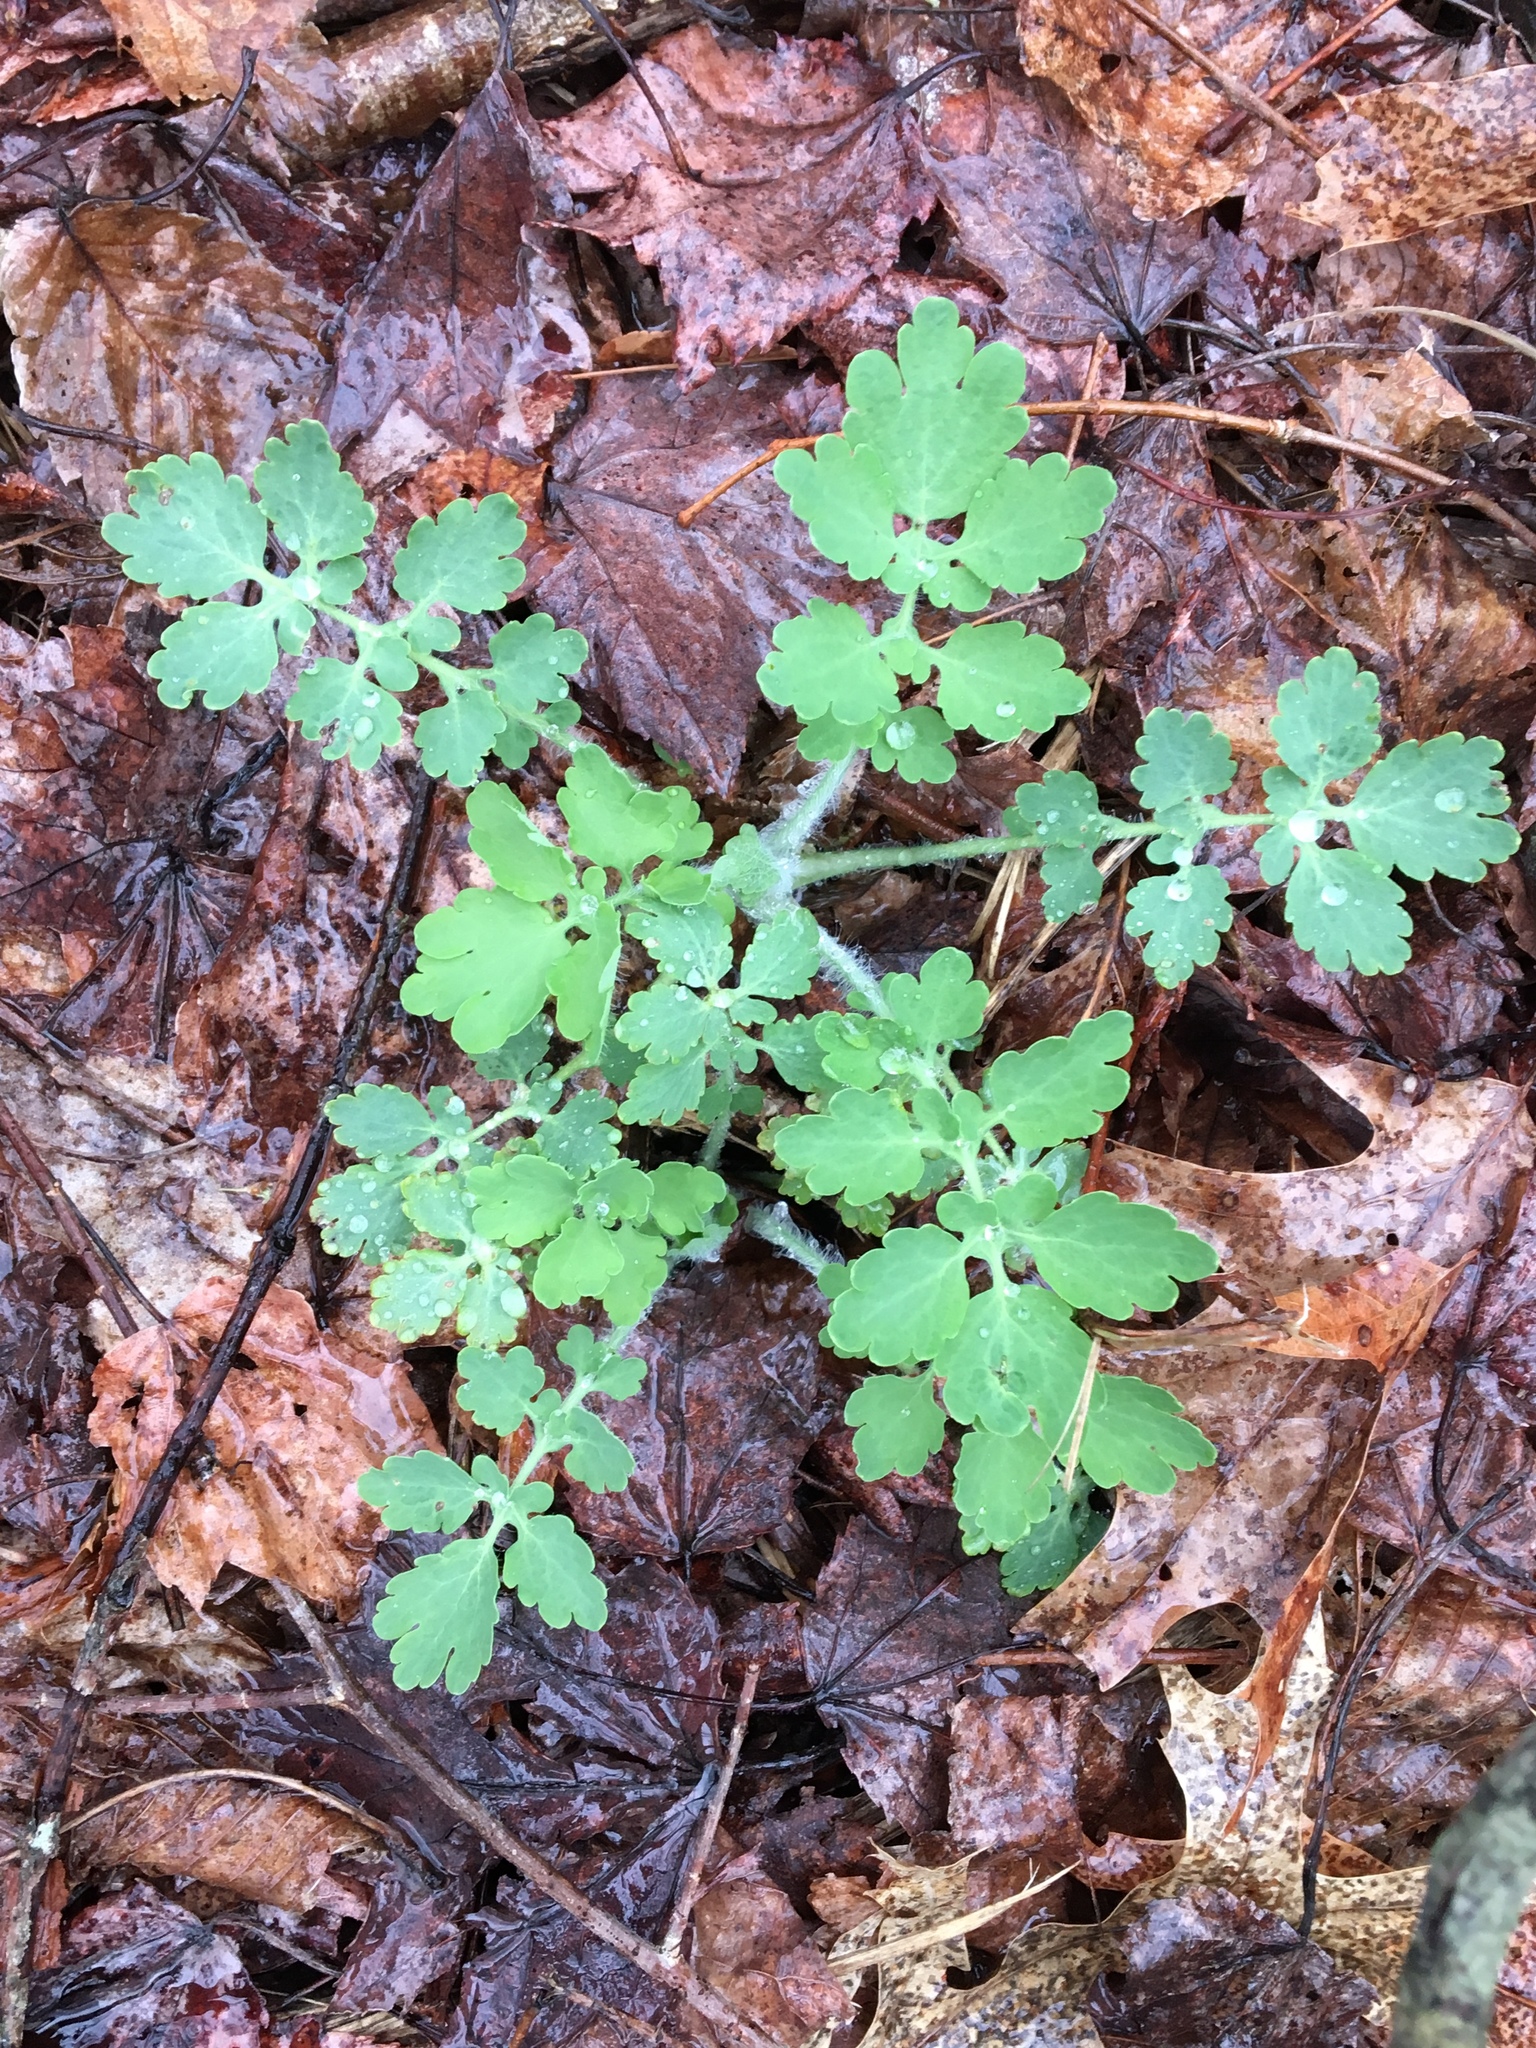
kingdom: Plantae
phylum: Tracheophyta
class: Magnoliopsida
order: Ranunculales
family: Papaveraceae
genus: Chelidonium
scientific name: Chelidonium majus
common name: Greater celandine
